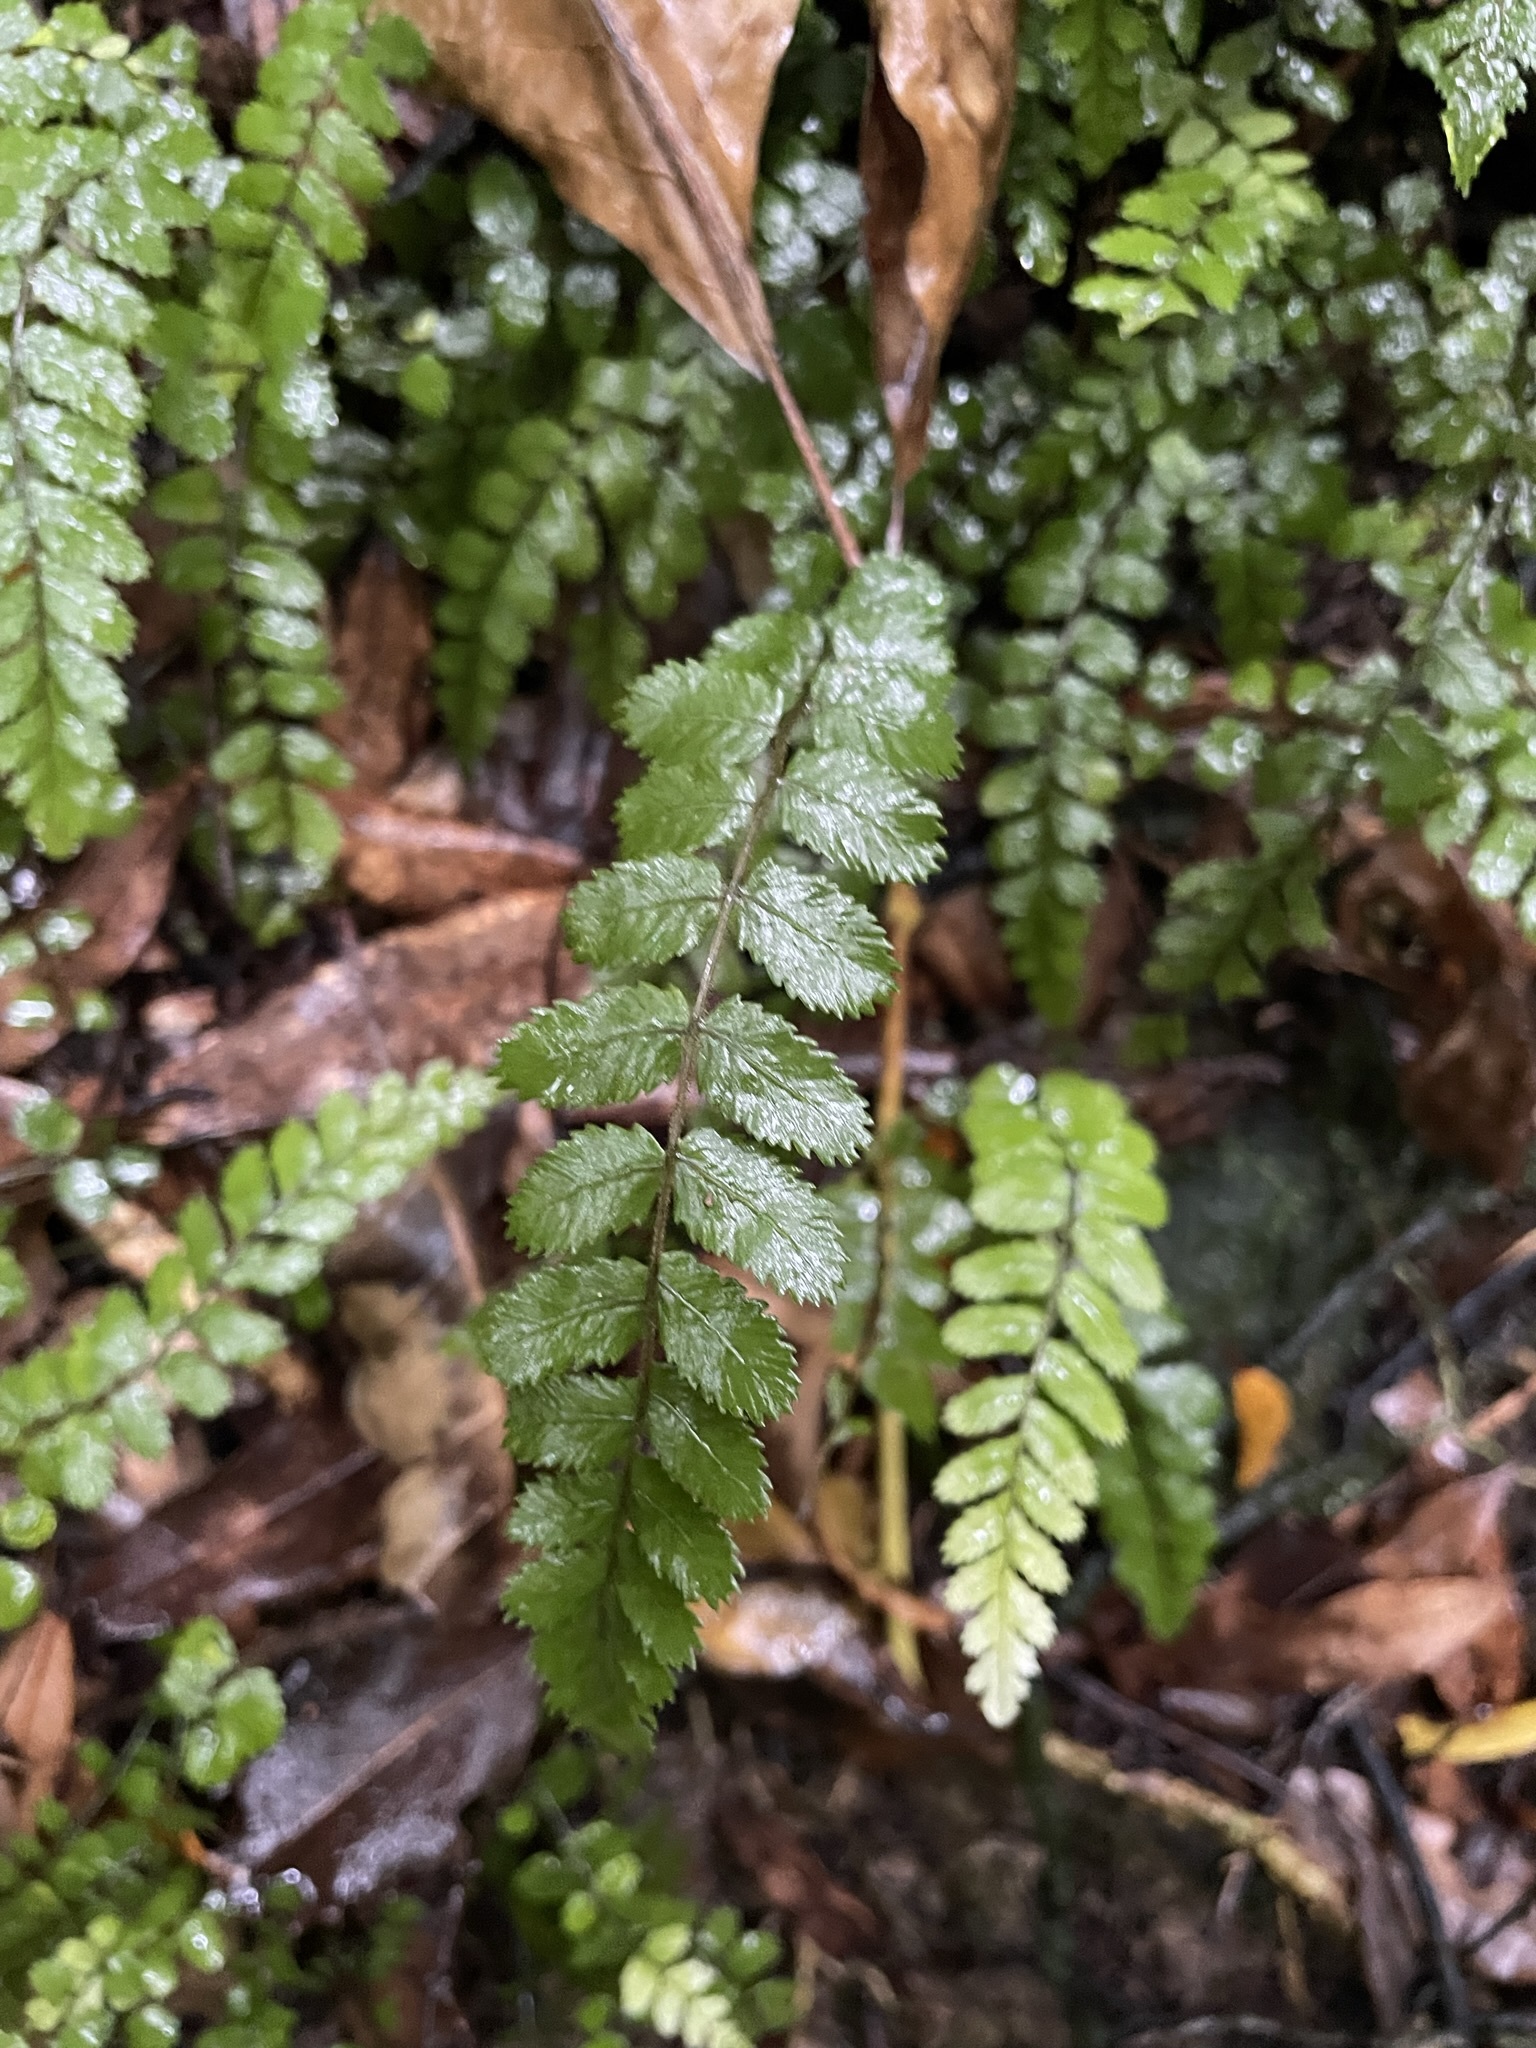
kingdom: Plantae
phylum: Tracheophyta
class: Polypodiopsida
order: Polypodiales
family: Blechnaceae
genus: Icarus
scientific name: Icarus filiformis
